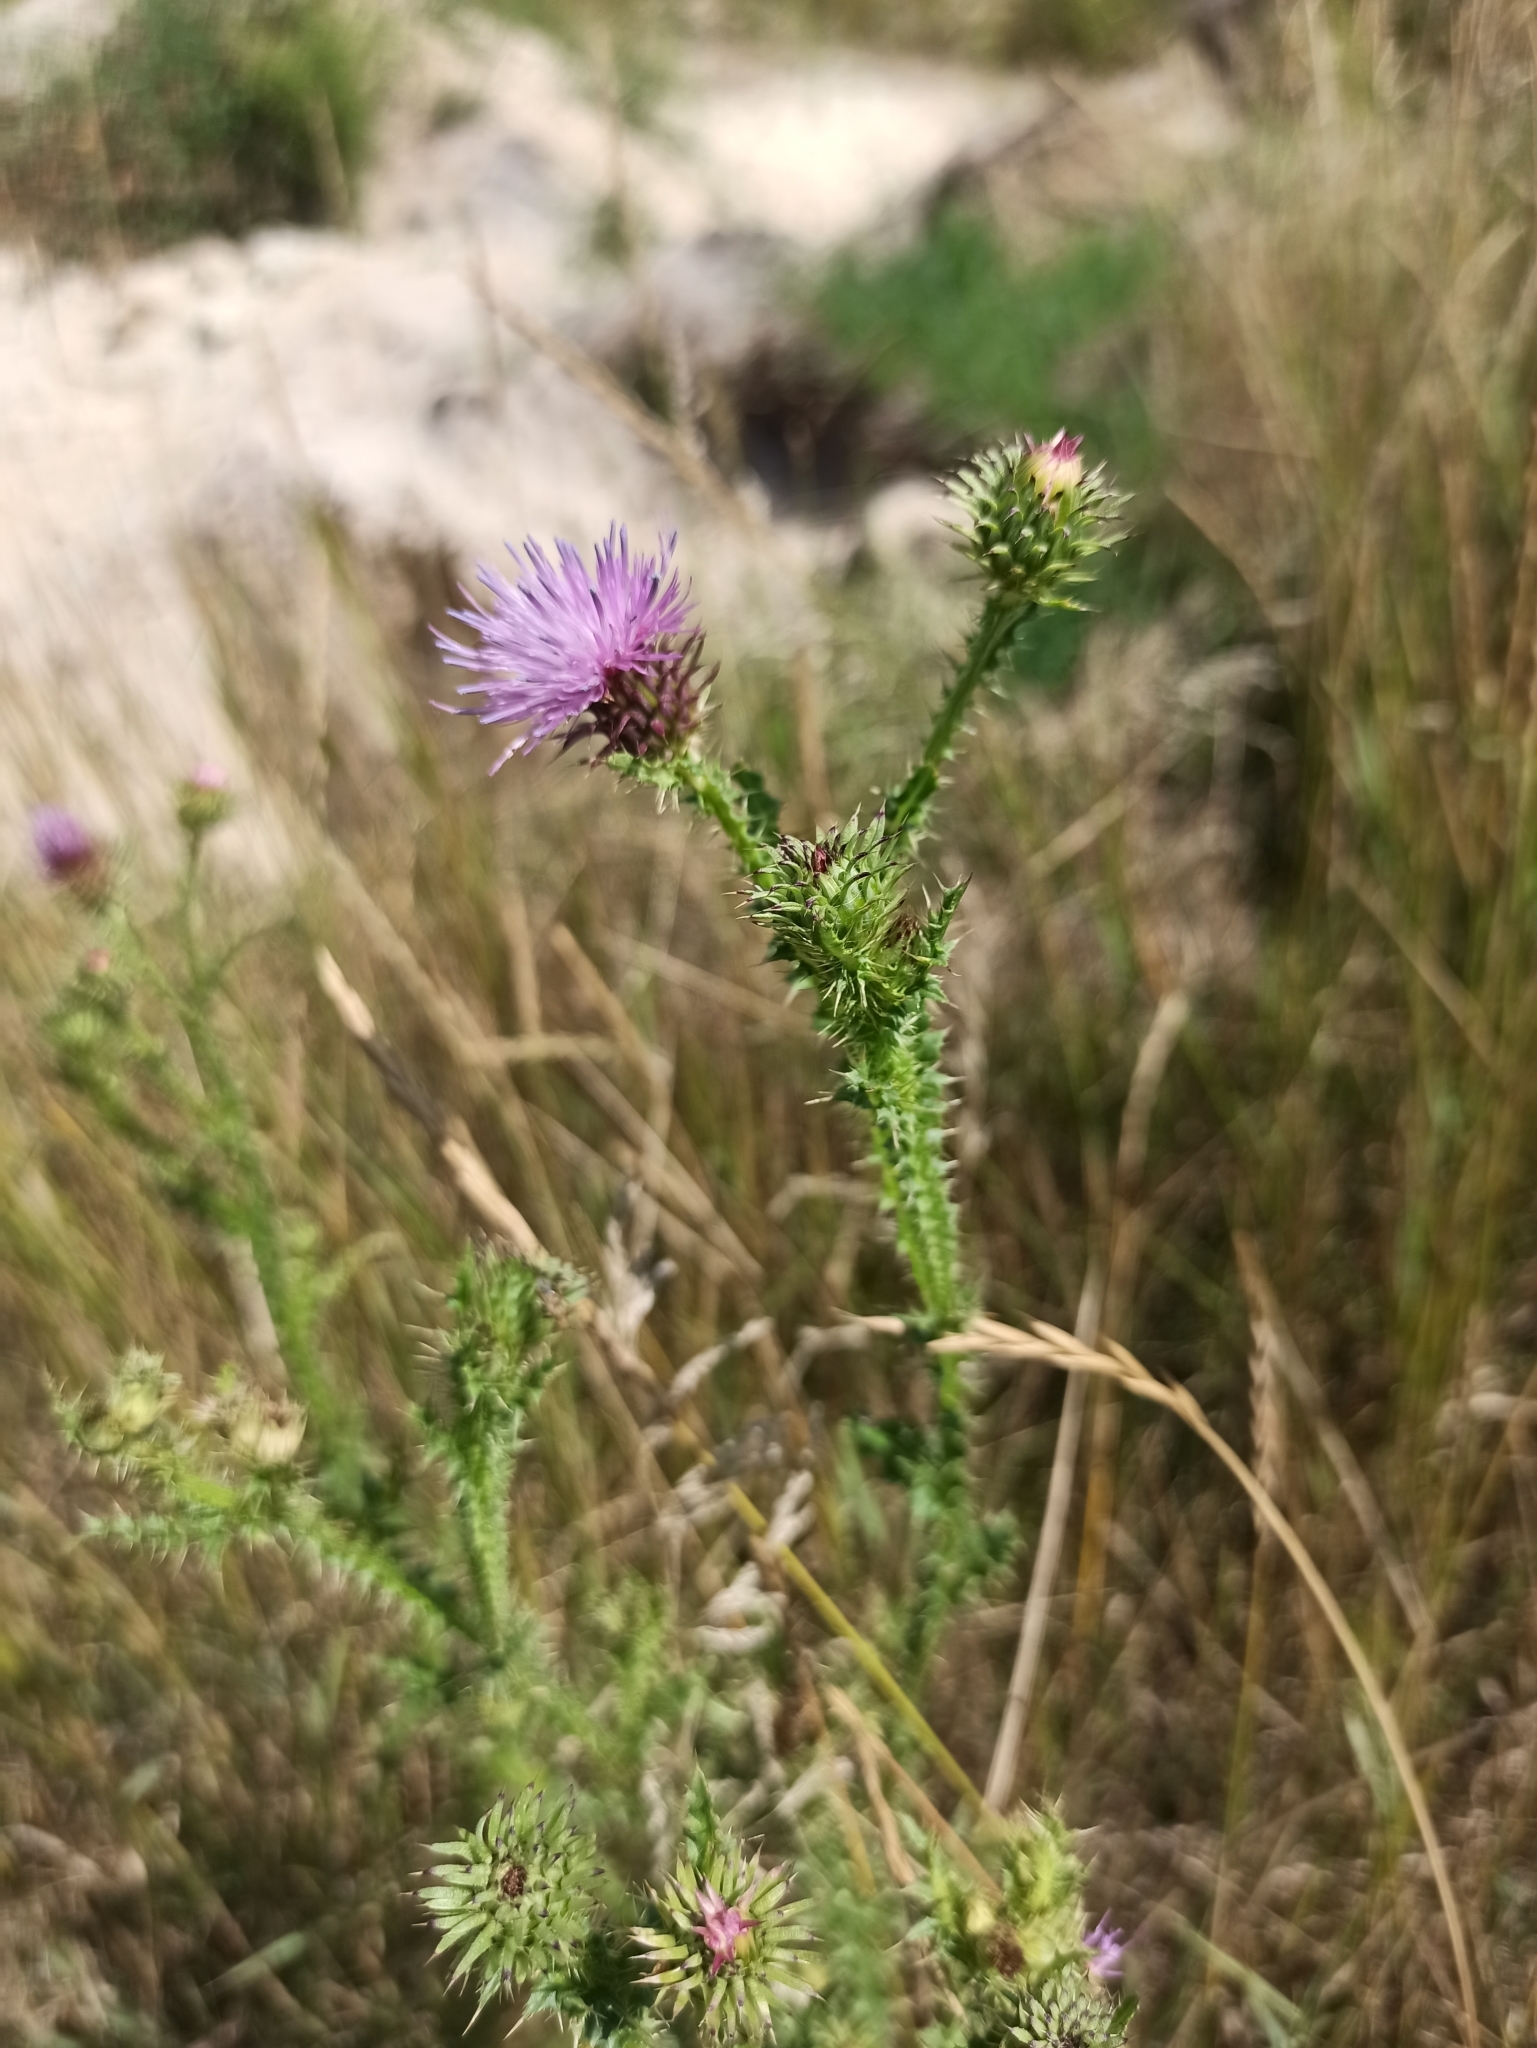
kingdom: Plantae
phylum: Tracheophyta
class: Magnoliopsida
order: Asterales
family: Asteraceae
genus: Carduus
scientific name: Carduus acanthoides
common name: Plumeless thistle
